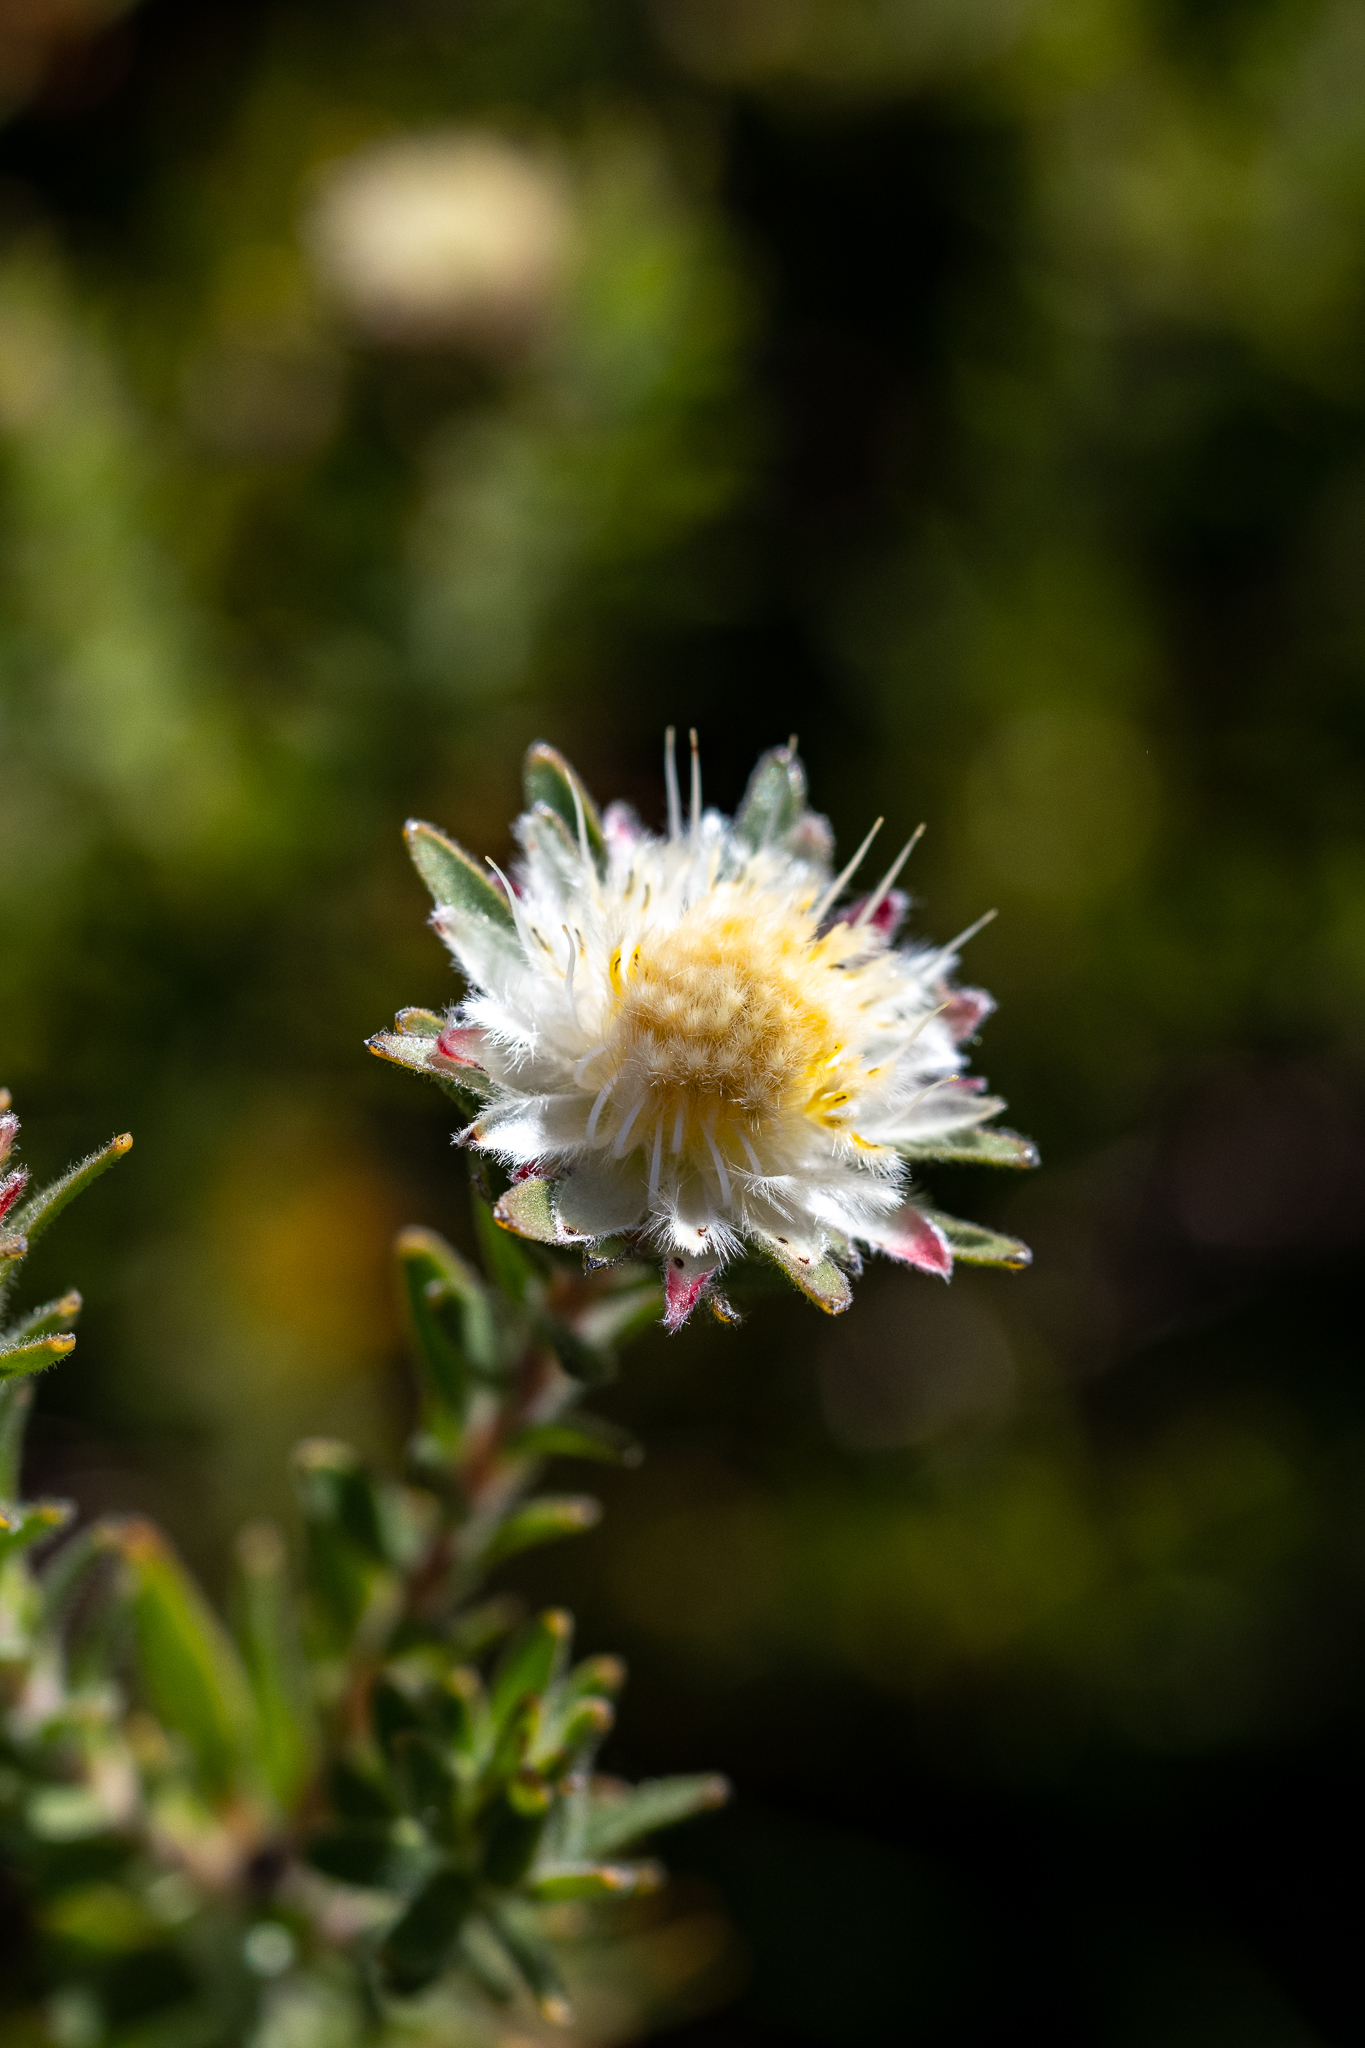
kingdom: Plantae
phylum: Tracheophyta
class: Magnoliopsida
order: Proteales
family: Proteaceae
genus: Diastella
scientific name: Diastella fraterna
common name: Palmiet silkypuff
